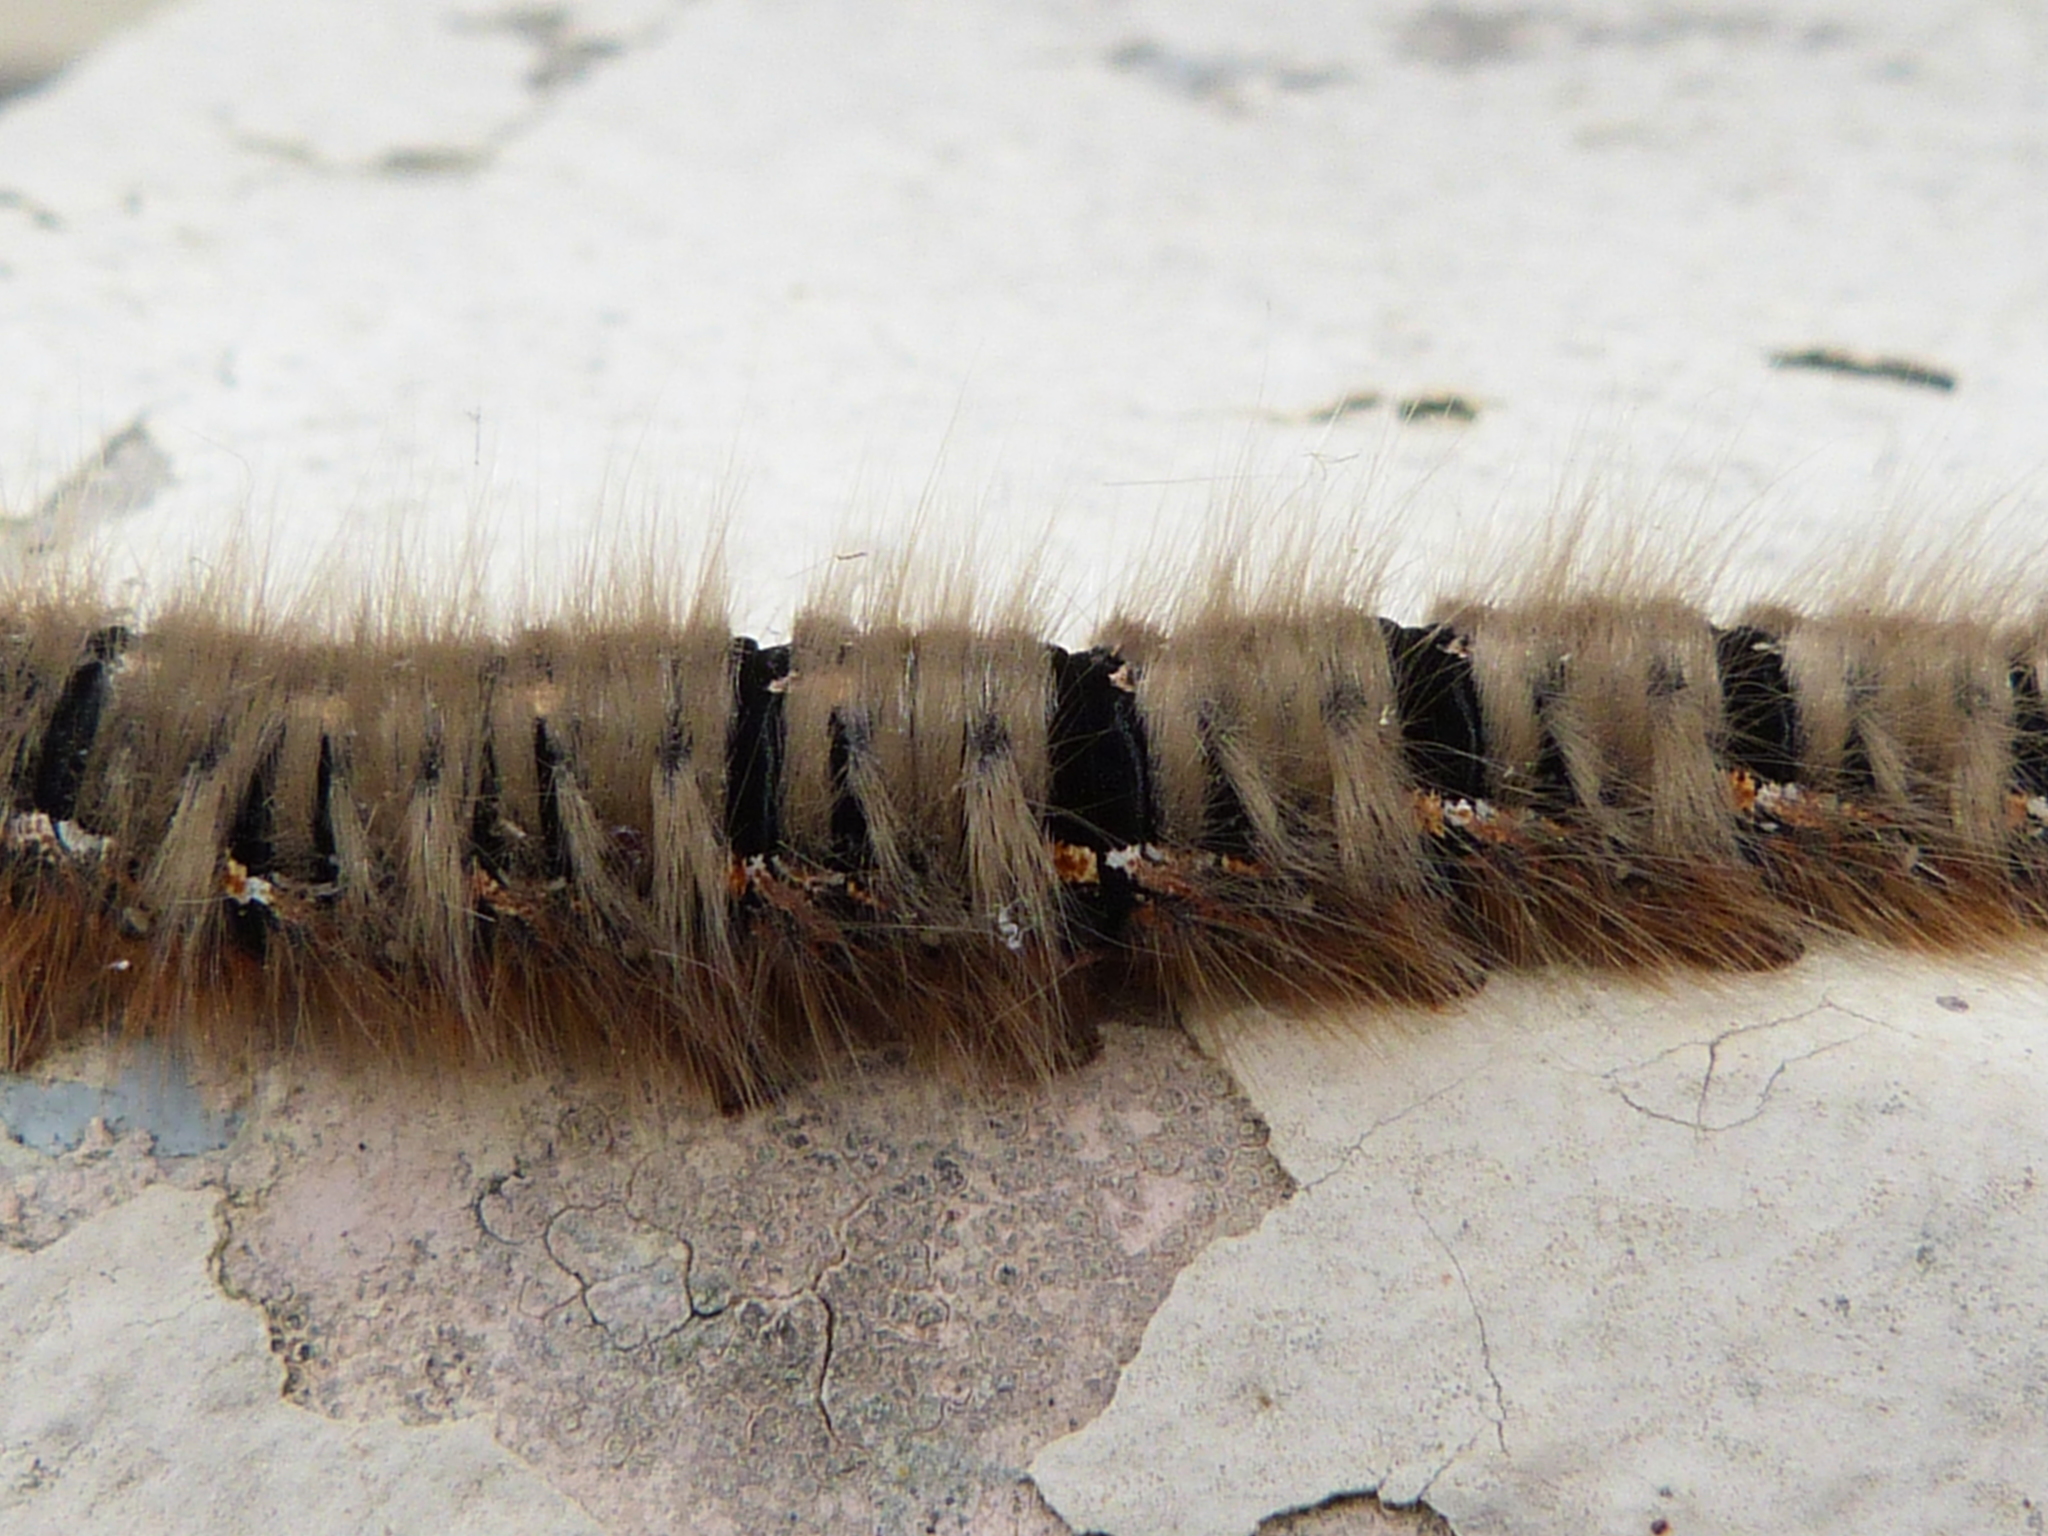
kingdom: Animalia
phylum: Arthropoda
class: Insecta
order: Lepidoptera
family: Lasiocampidae
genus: Lasiocampa
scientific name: Lasiocampa quercus
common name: Oak eggar
